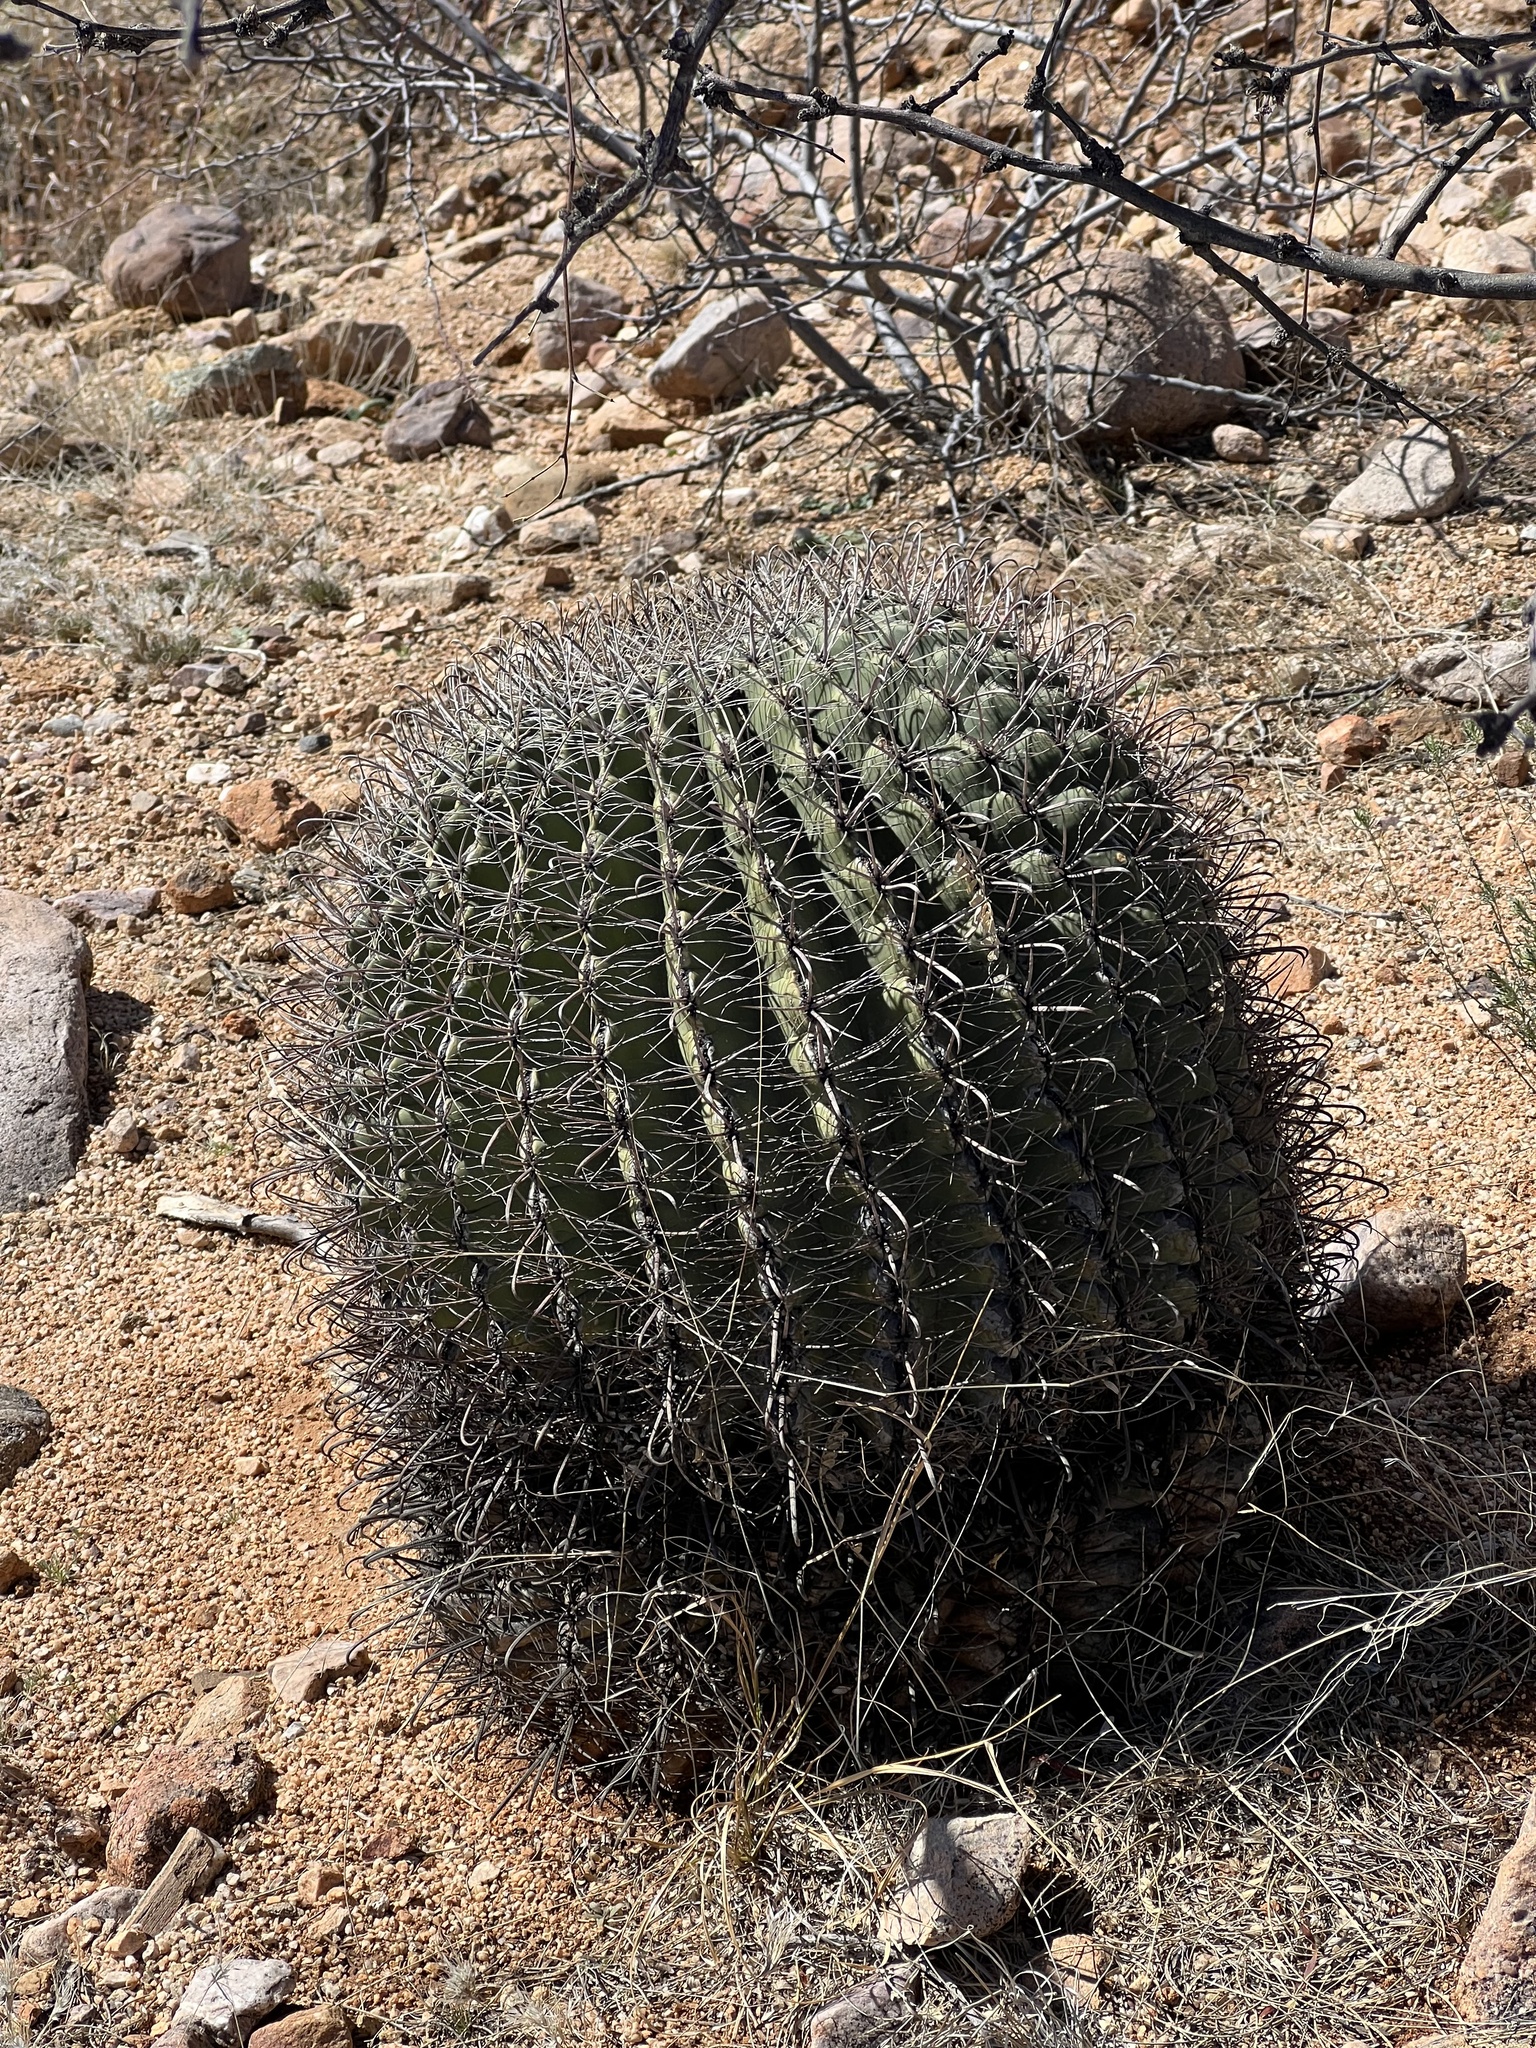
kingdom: Plantae
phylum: Tracheophyta
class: Magnoliopsida
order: Caryophyllales
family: Cactaceae
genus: Ferocactus
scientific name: Ferocactus wislizeni
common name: Candy barrel cactus
